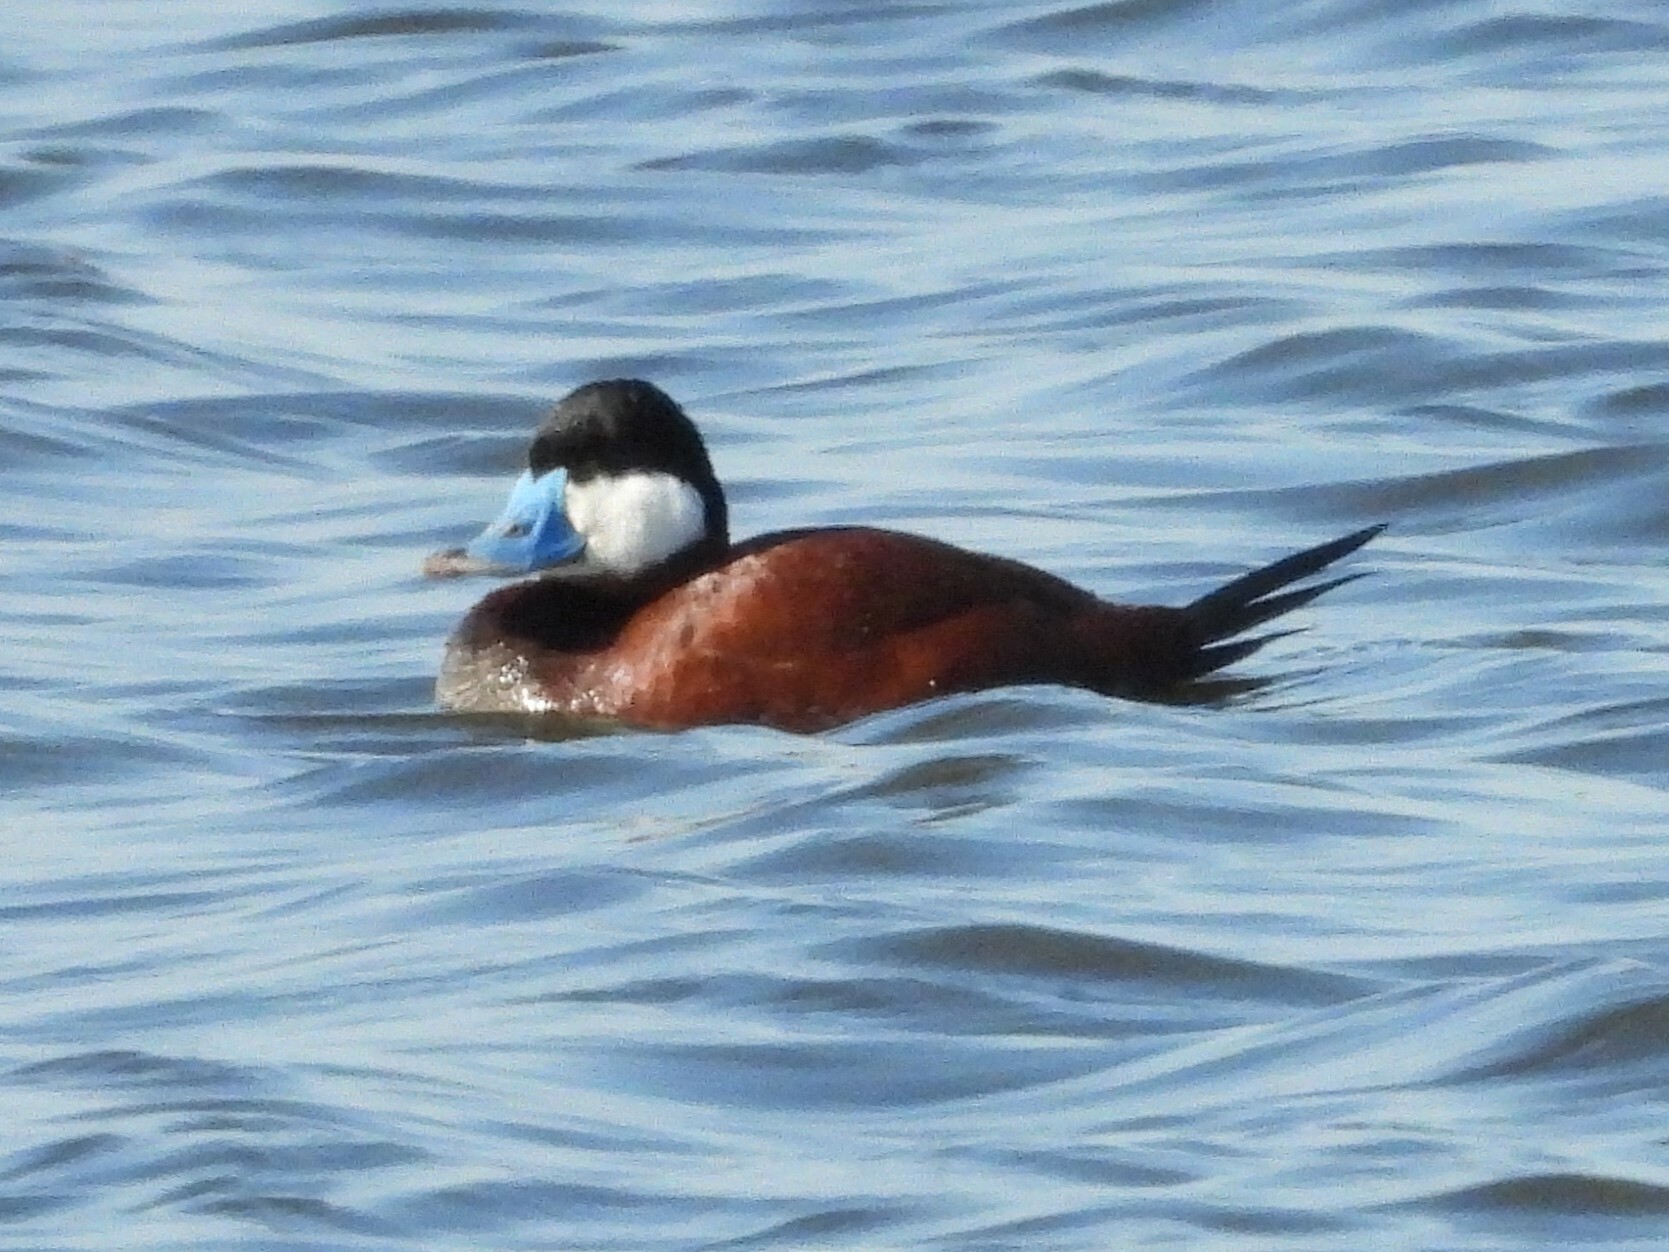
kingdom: Animalia
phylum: Chordata
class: Aves
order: Anseriformes
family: Anatidae
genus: Oxyura
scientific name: Oxyura jamaicensis
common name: Ruddy duck
